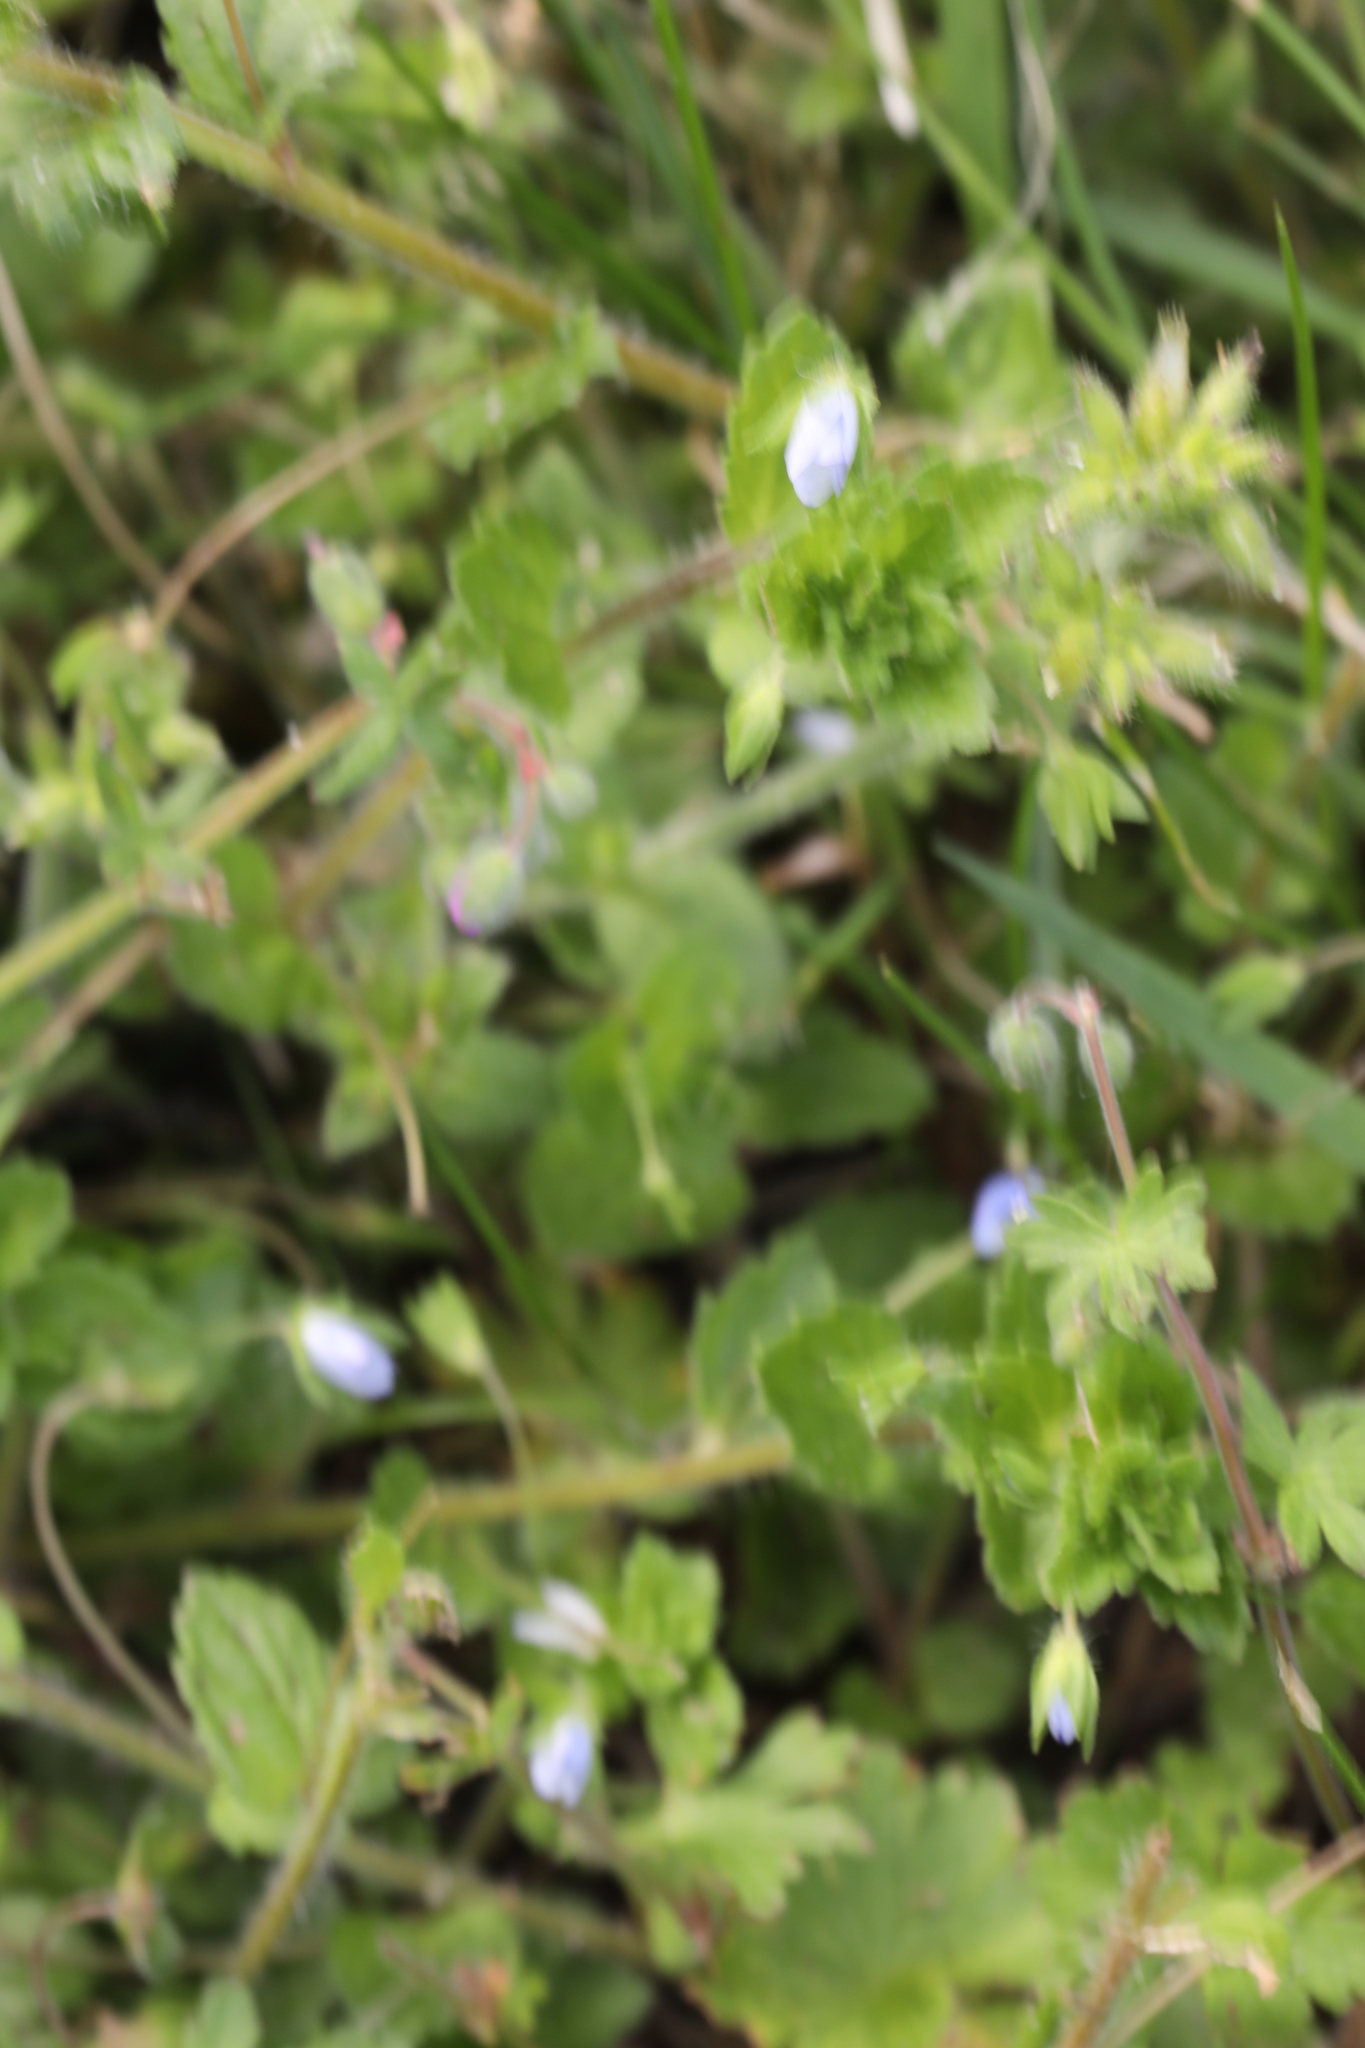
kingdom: Plantae
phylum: Tracheophyta
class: Magnoliopsida
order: Lamiales
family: Plantaginaceae
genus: Veronica
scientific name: Veronica persica
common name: Common field-speedwell
